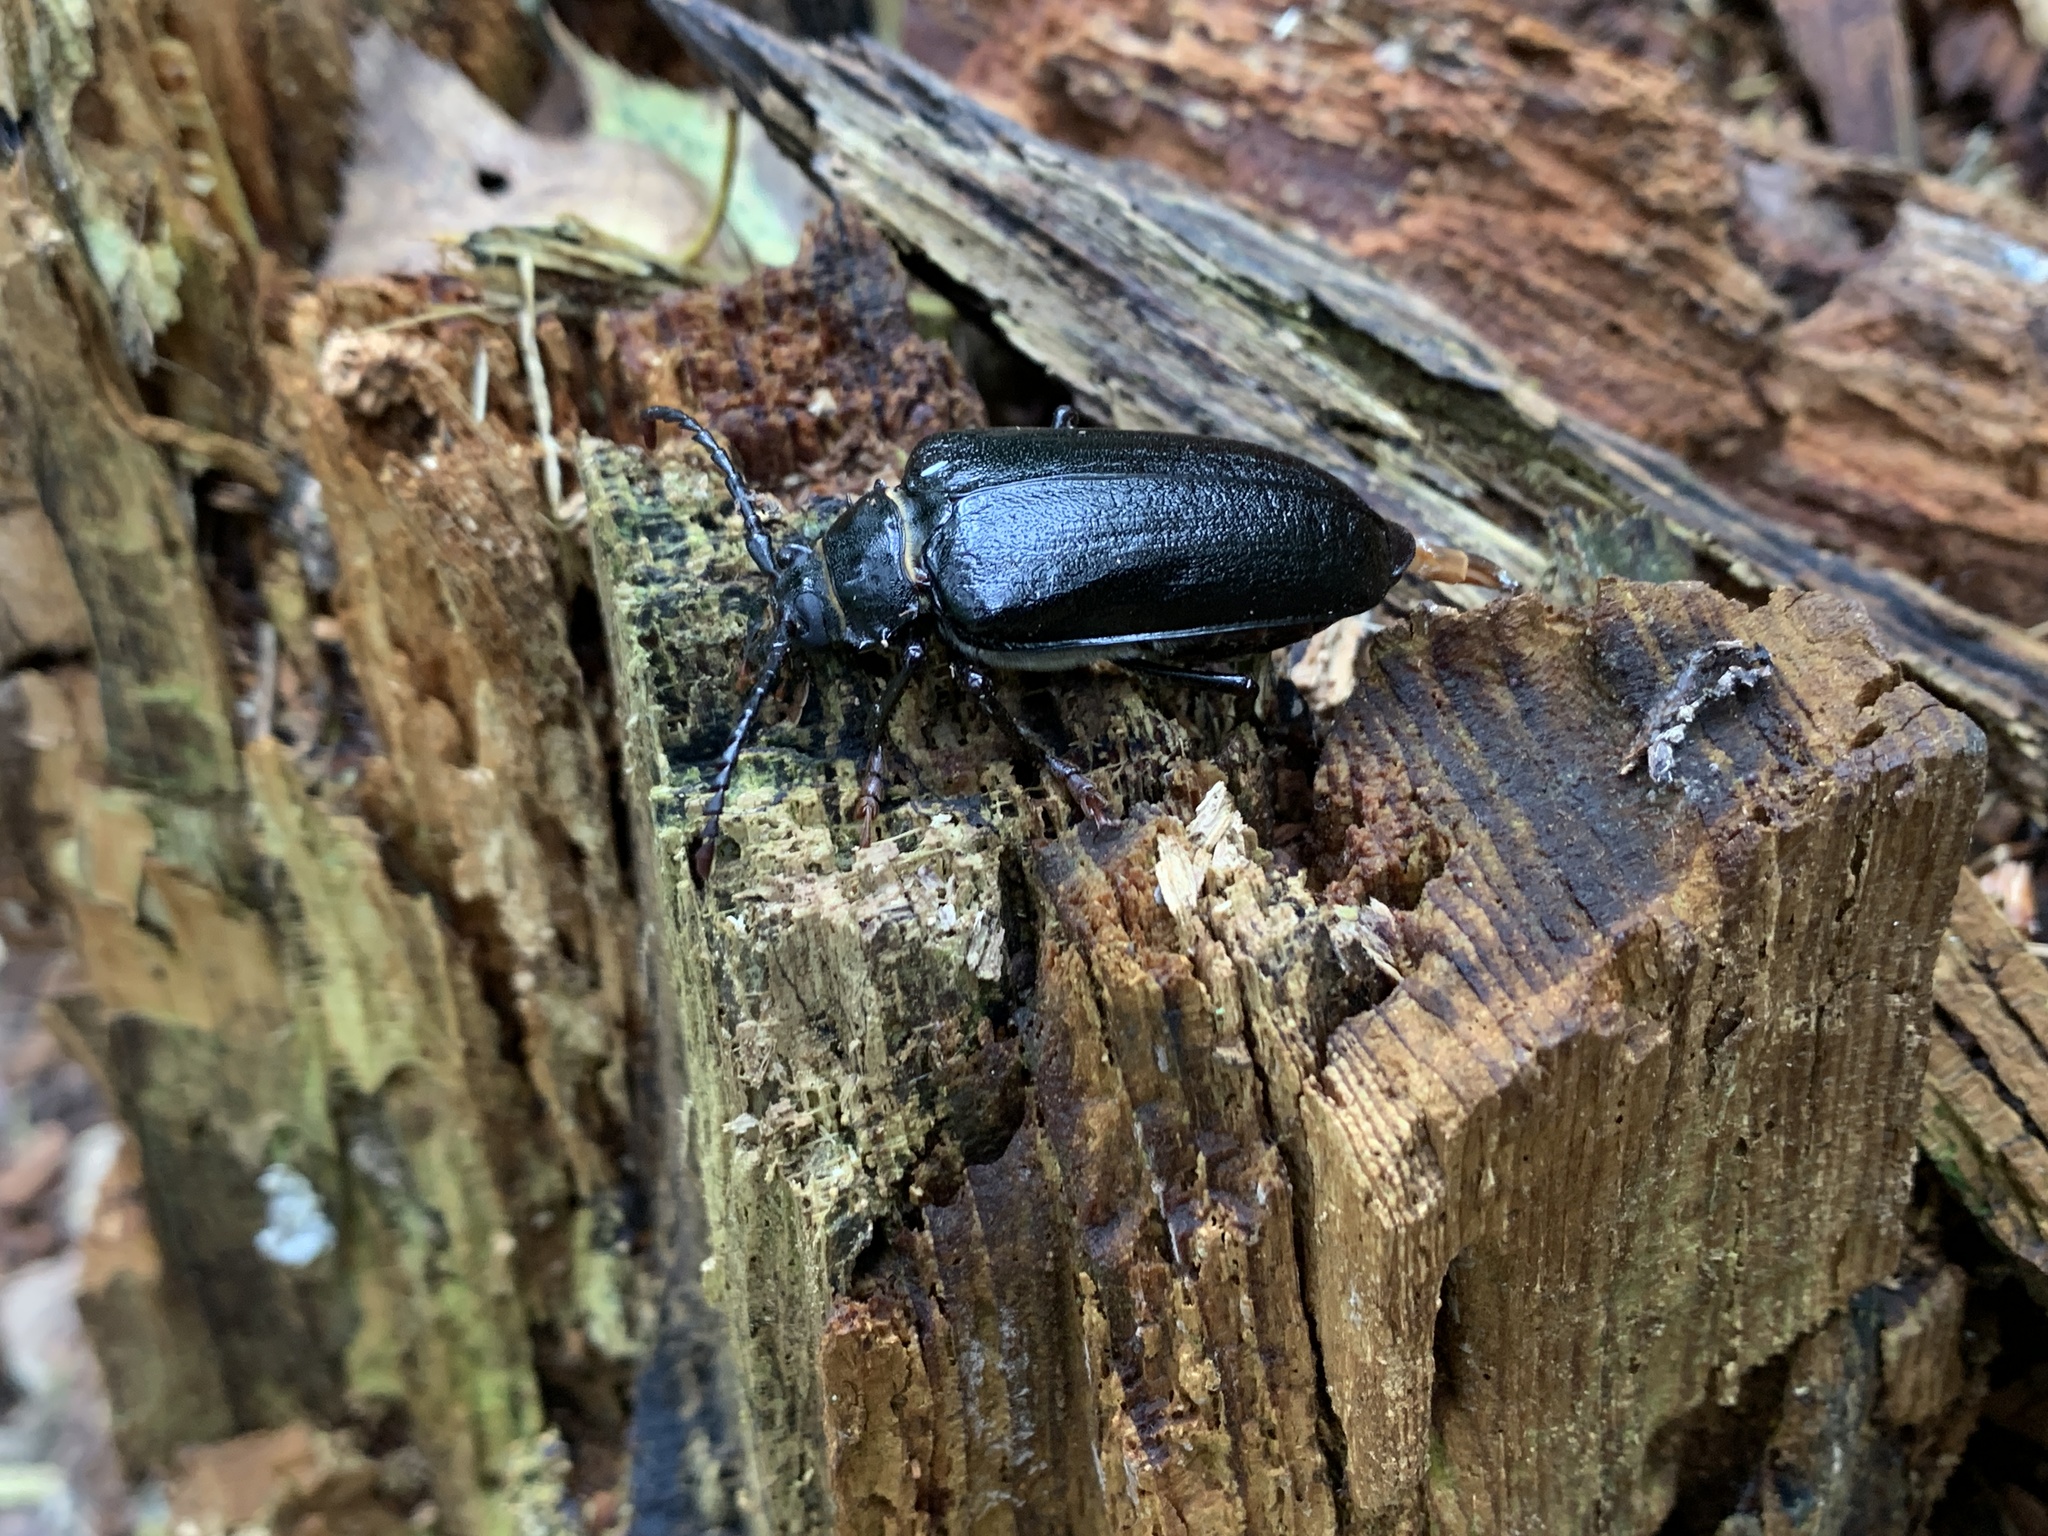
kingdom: Animalia
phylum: Arthropoda
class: Insecta
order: Coleoptera
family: Cerambycidae
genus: Prionus
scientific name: Prionus coriarius
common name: Tanner beetle
